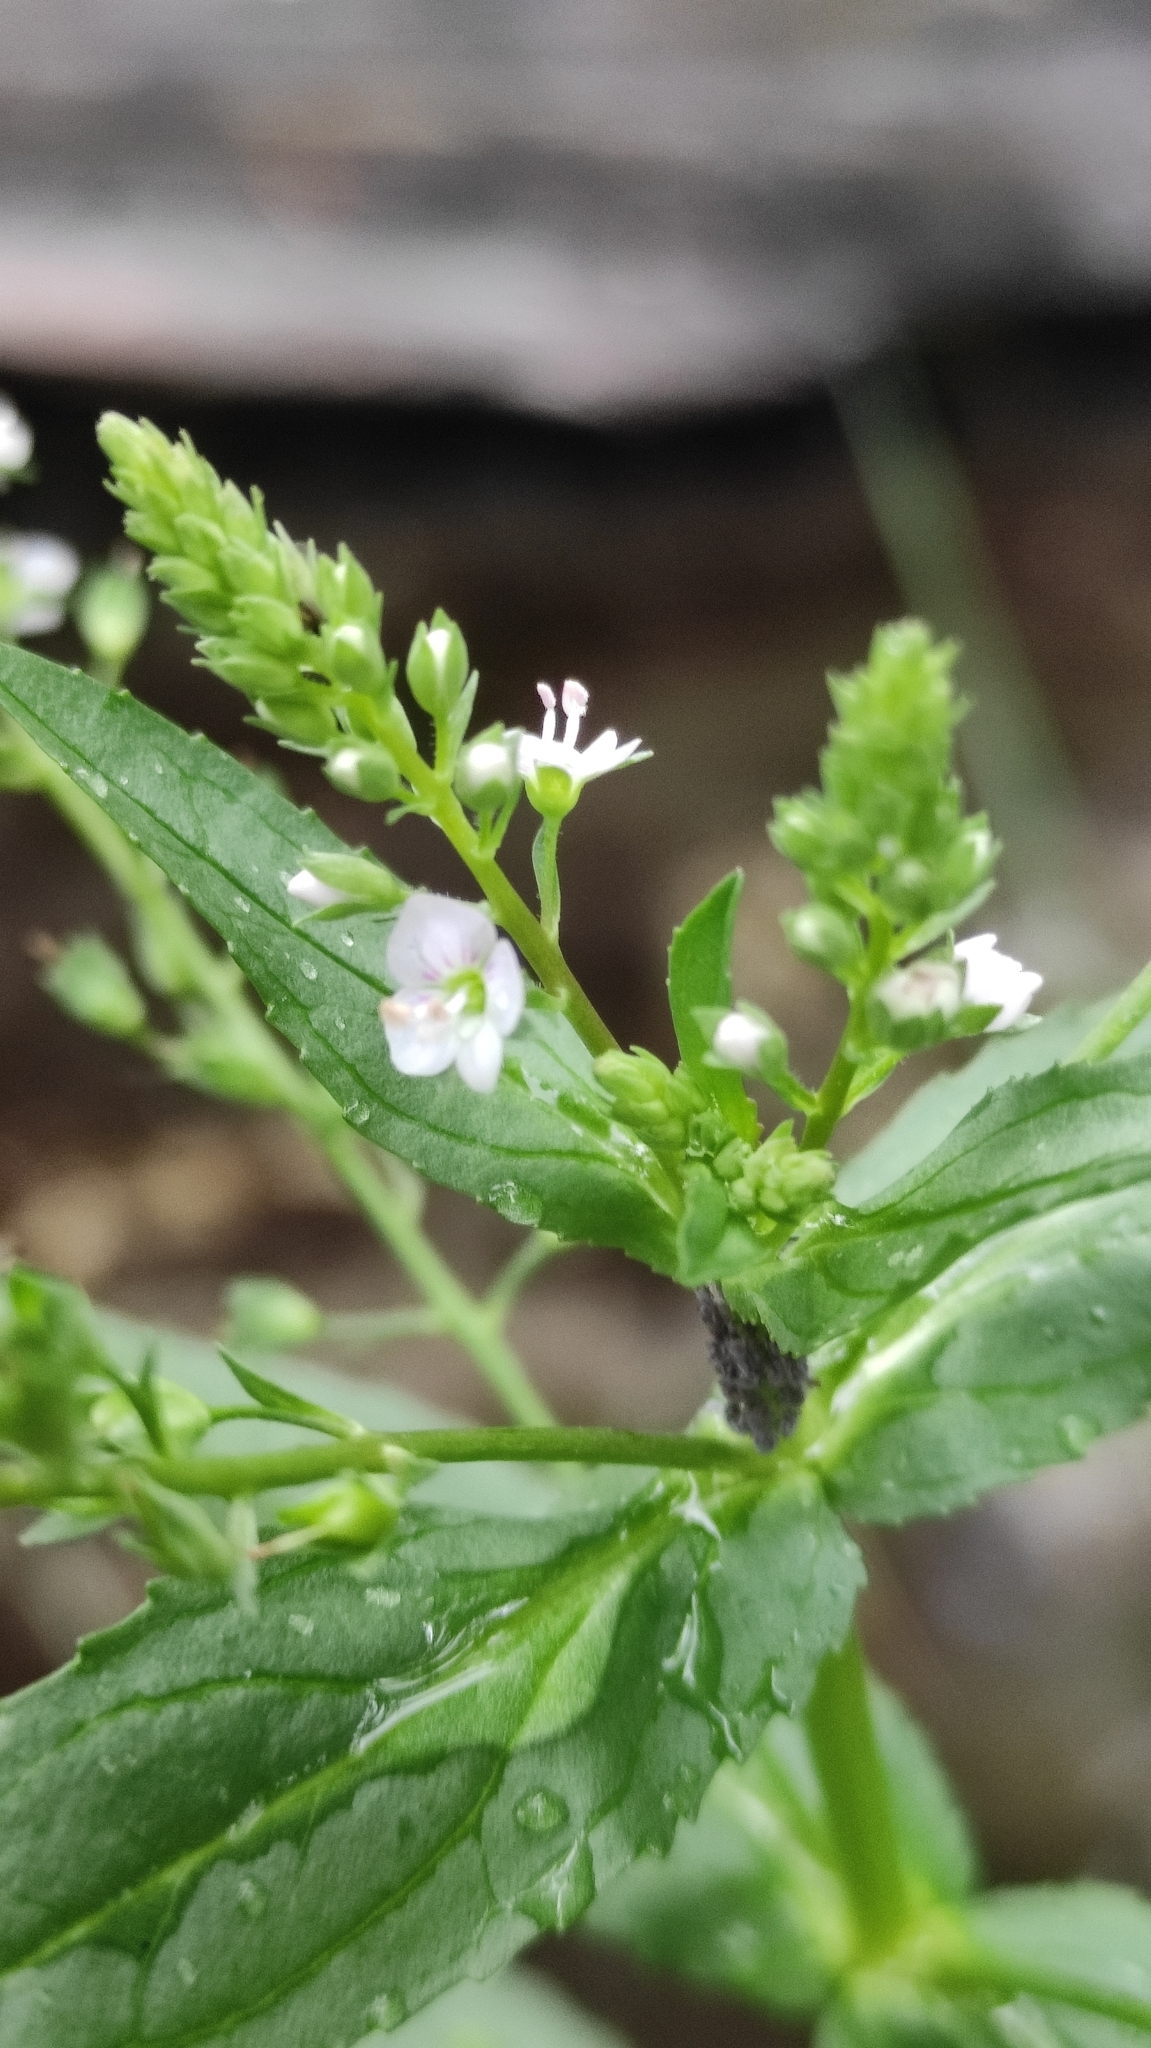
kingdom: Plantae
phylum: Tracheophyta
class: Magnoliopsida
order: Lamiales
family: Plantaginaceae
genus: Veronica
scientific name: Veronica anagallis-aquatica
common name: Water speedwell
